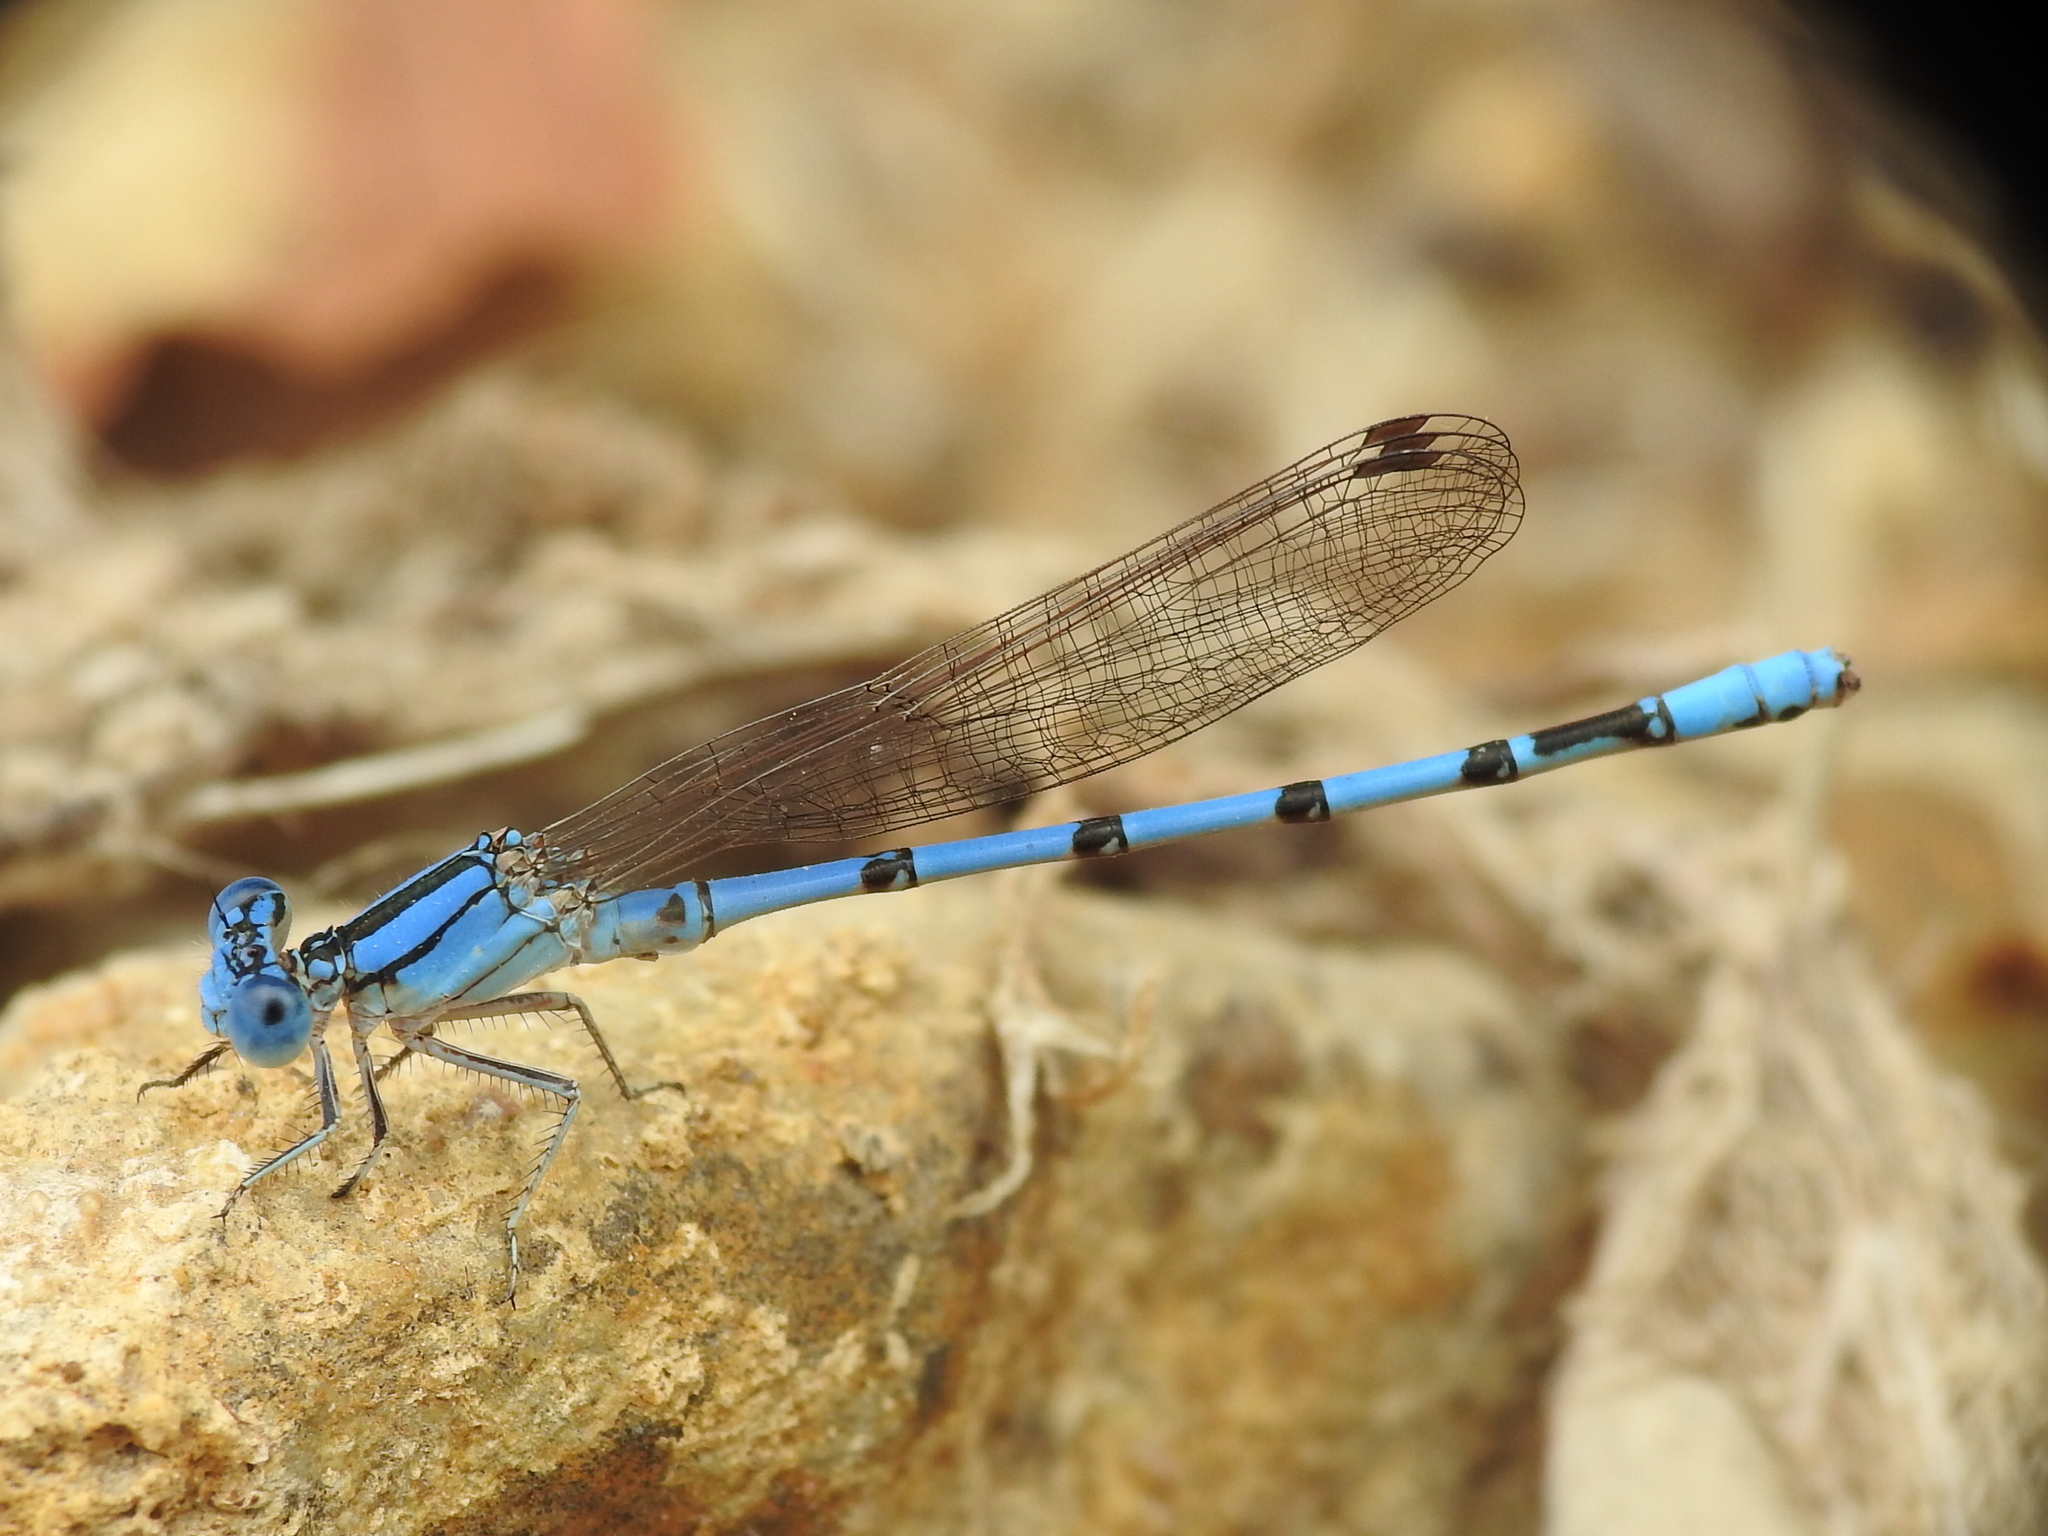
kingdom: Animalia
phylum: Arthropoda
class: Insecta
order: Odonata
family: Coenagrionidae
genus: Argia
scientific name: Argia nahuana
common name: Aztec dancer
